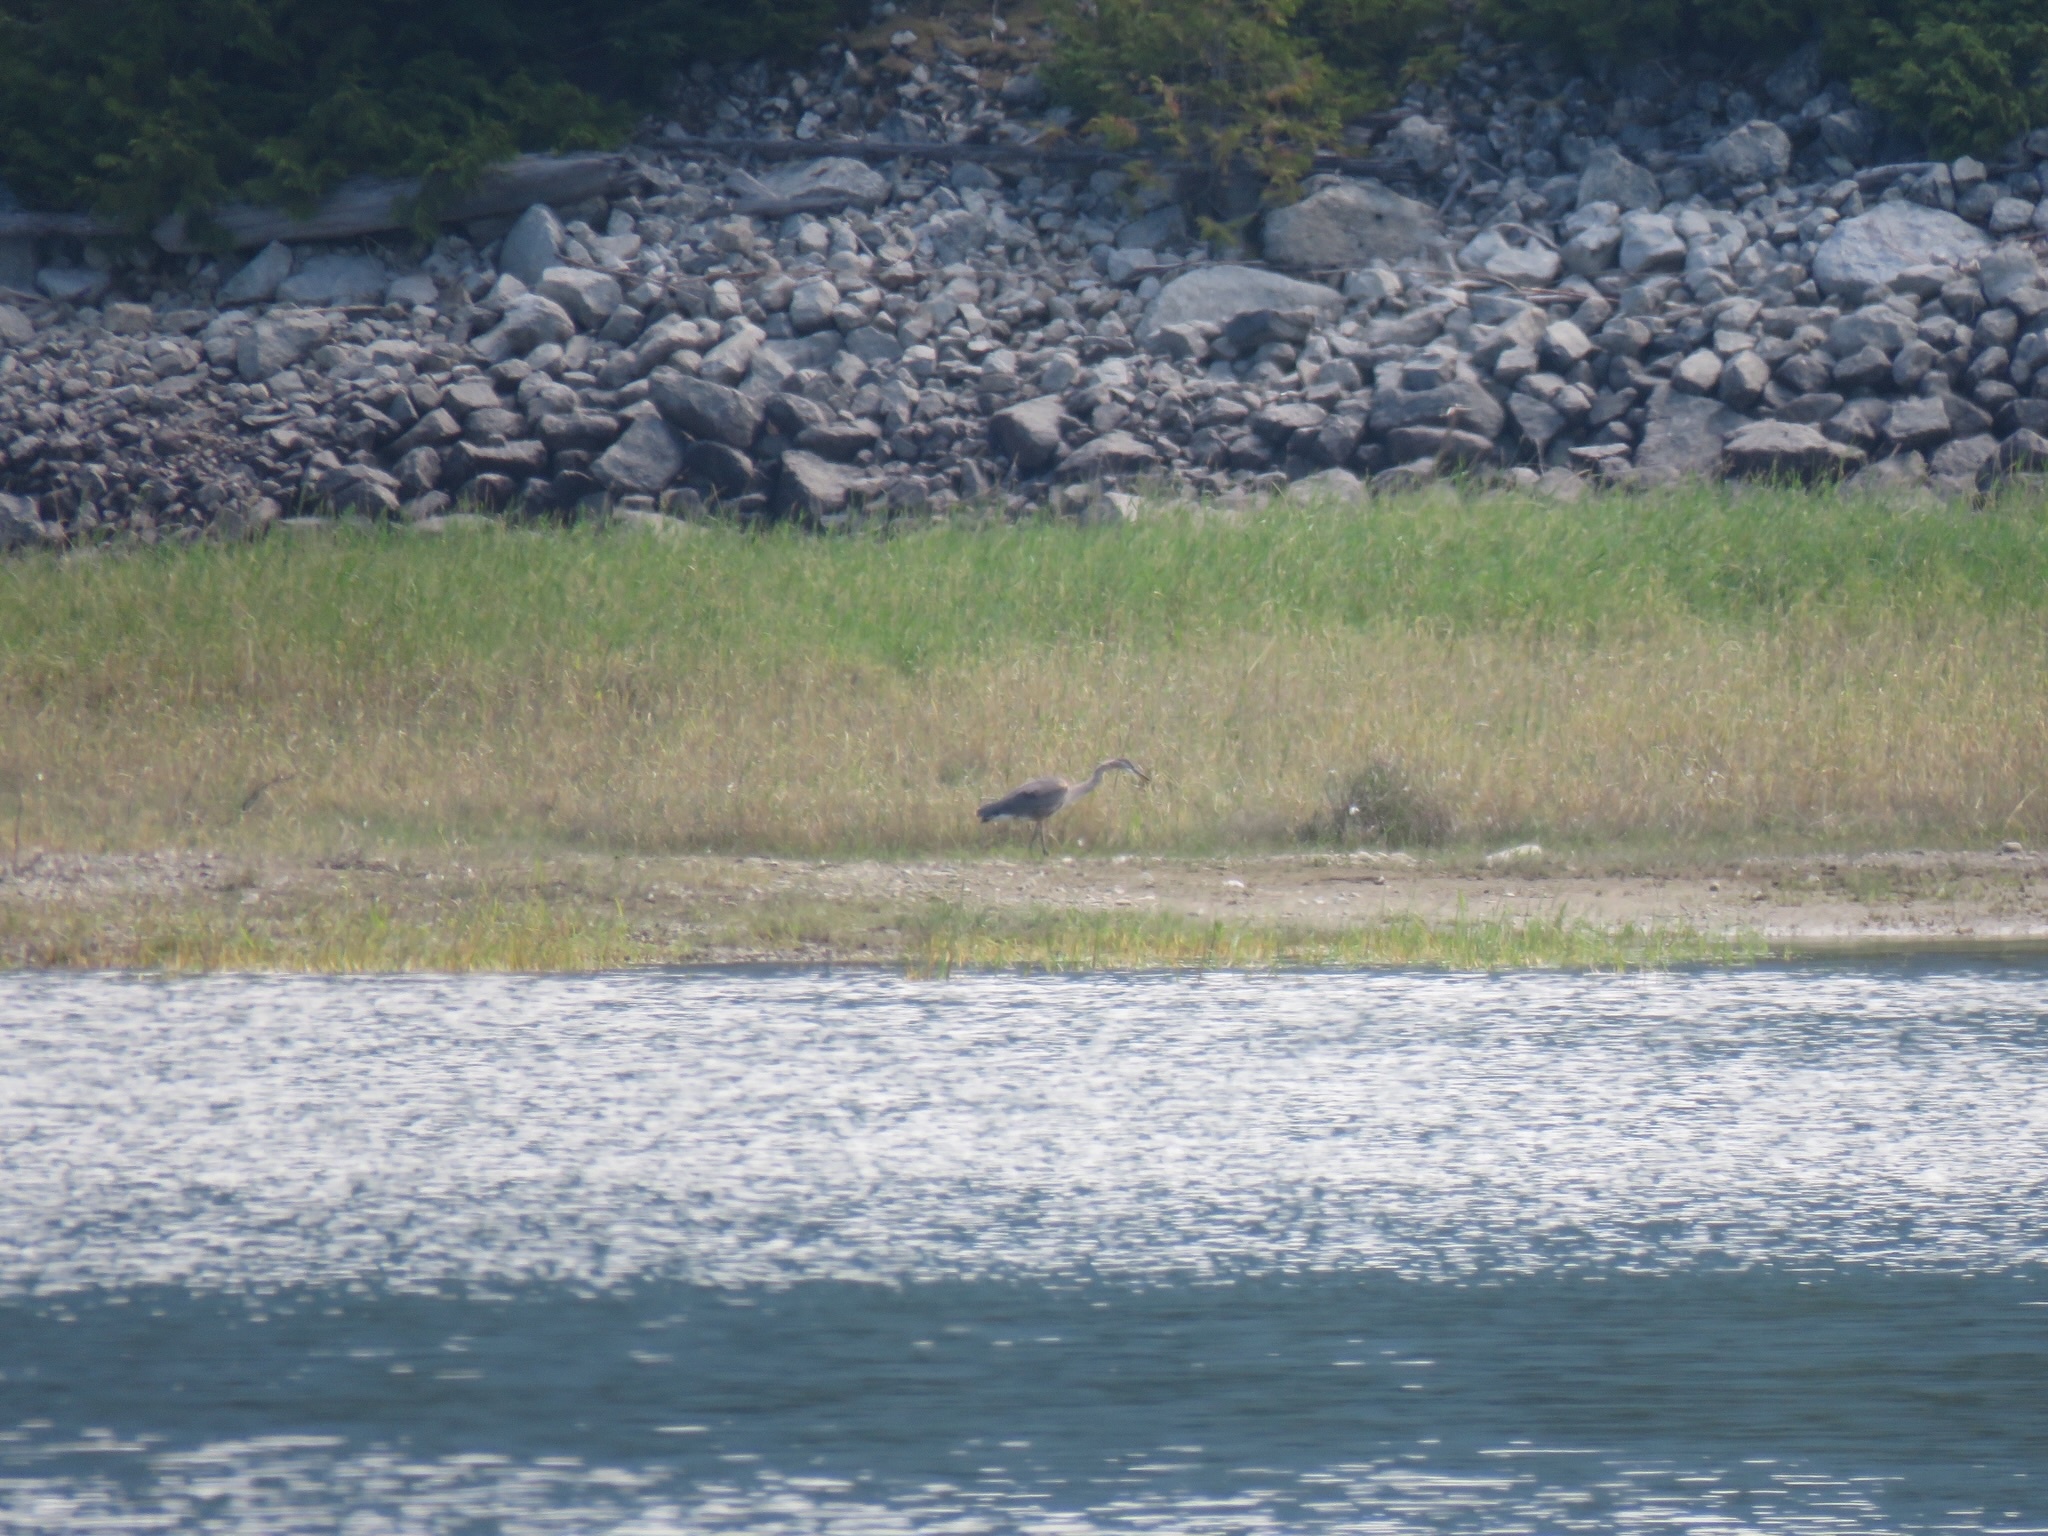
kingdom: Animalia
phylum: Chordata
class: Aves
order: Pelecaniformes
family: Ardeidae
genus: Ardea
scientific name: Ardea herodias
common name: Great blue heron
